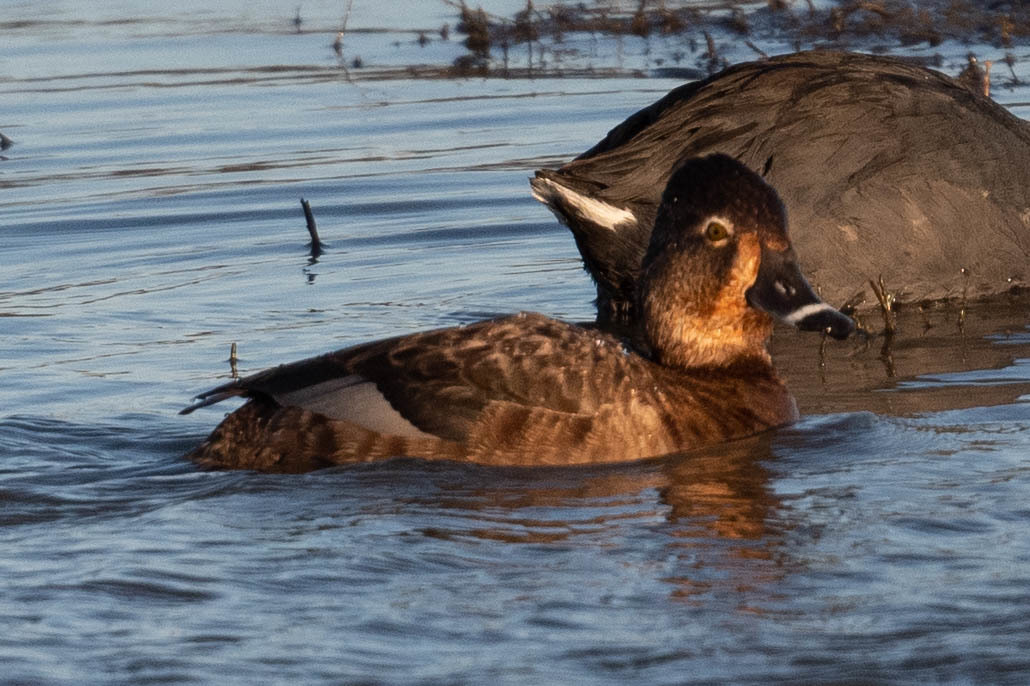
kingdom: Animalia
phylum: Chordata
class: Aves
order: Anseriformes
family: Anatidae
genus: Aythya
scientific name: Aythya collaris
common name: Ring-necked duck
